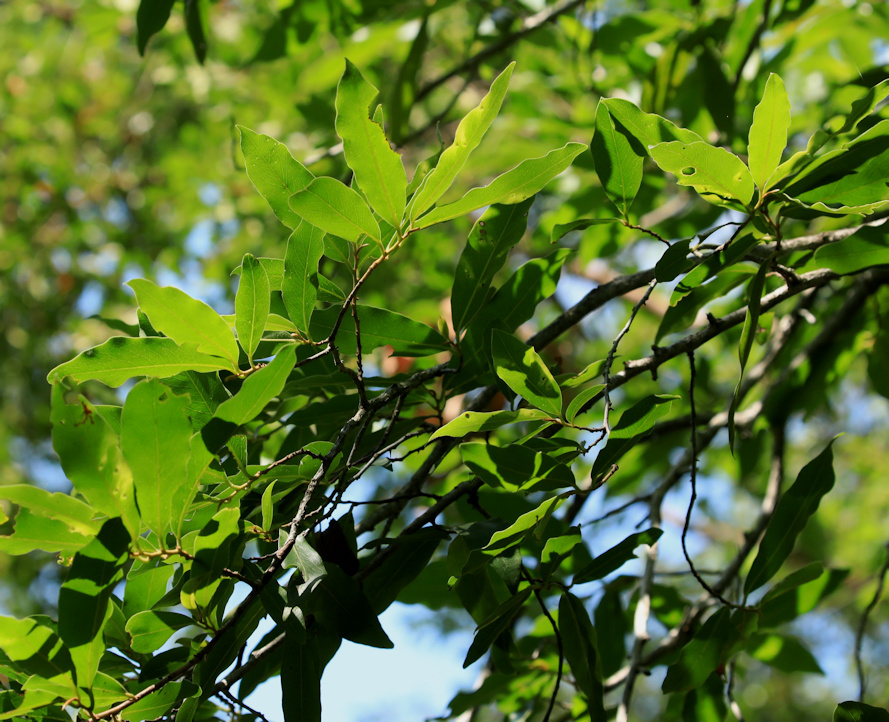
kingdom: Plantae
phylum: Tracheophyta
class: Magnoliopsida
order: Ericales
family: Ebenaceae
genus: Diospyros
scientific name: Diospyros mespiliformis
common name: Ebony diospyros
